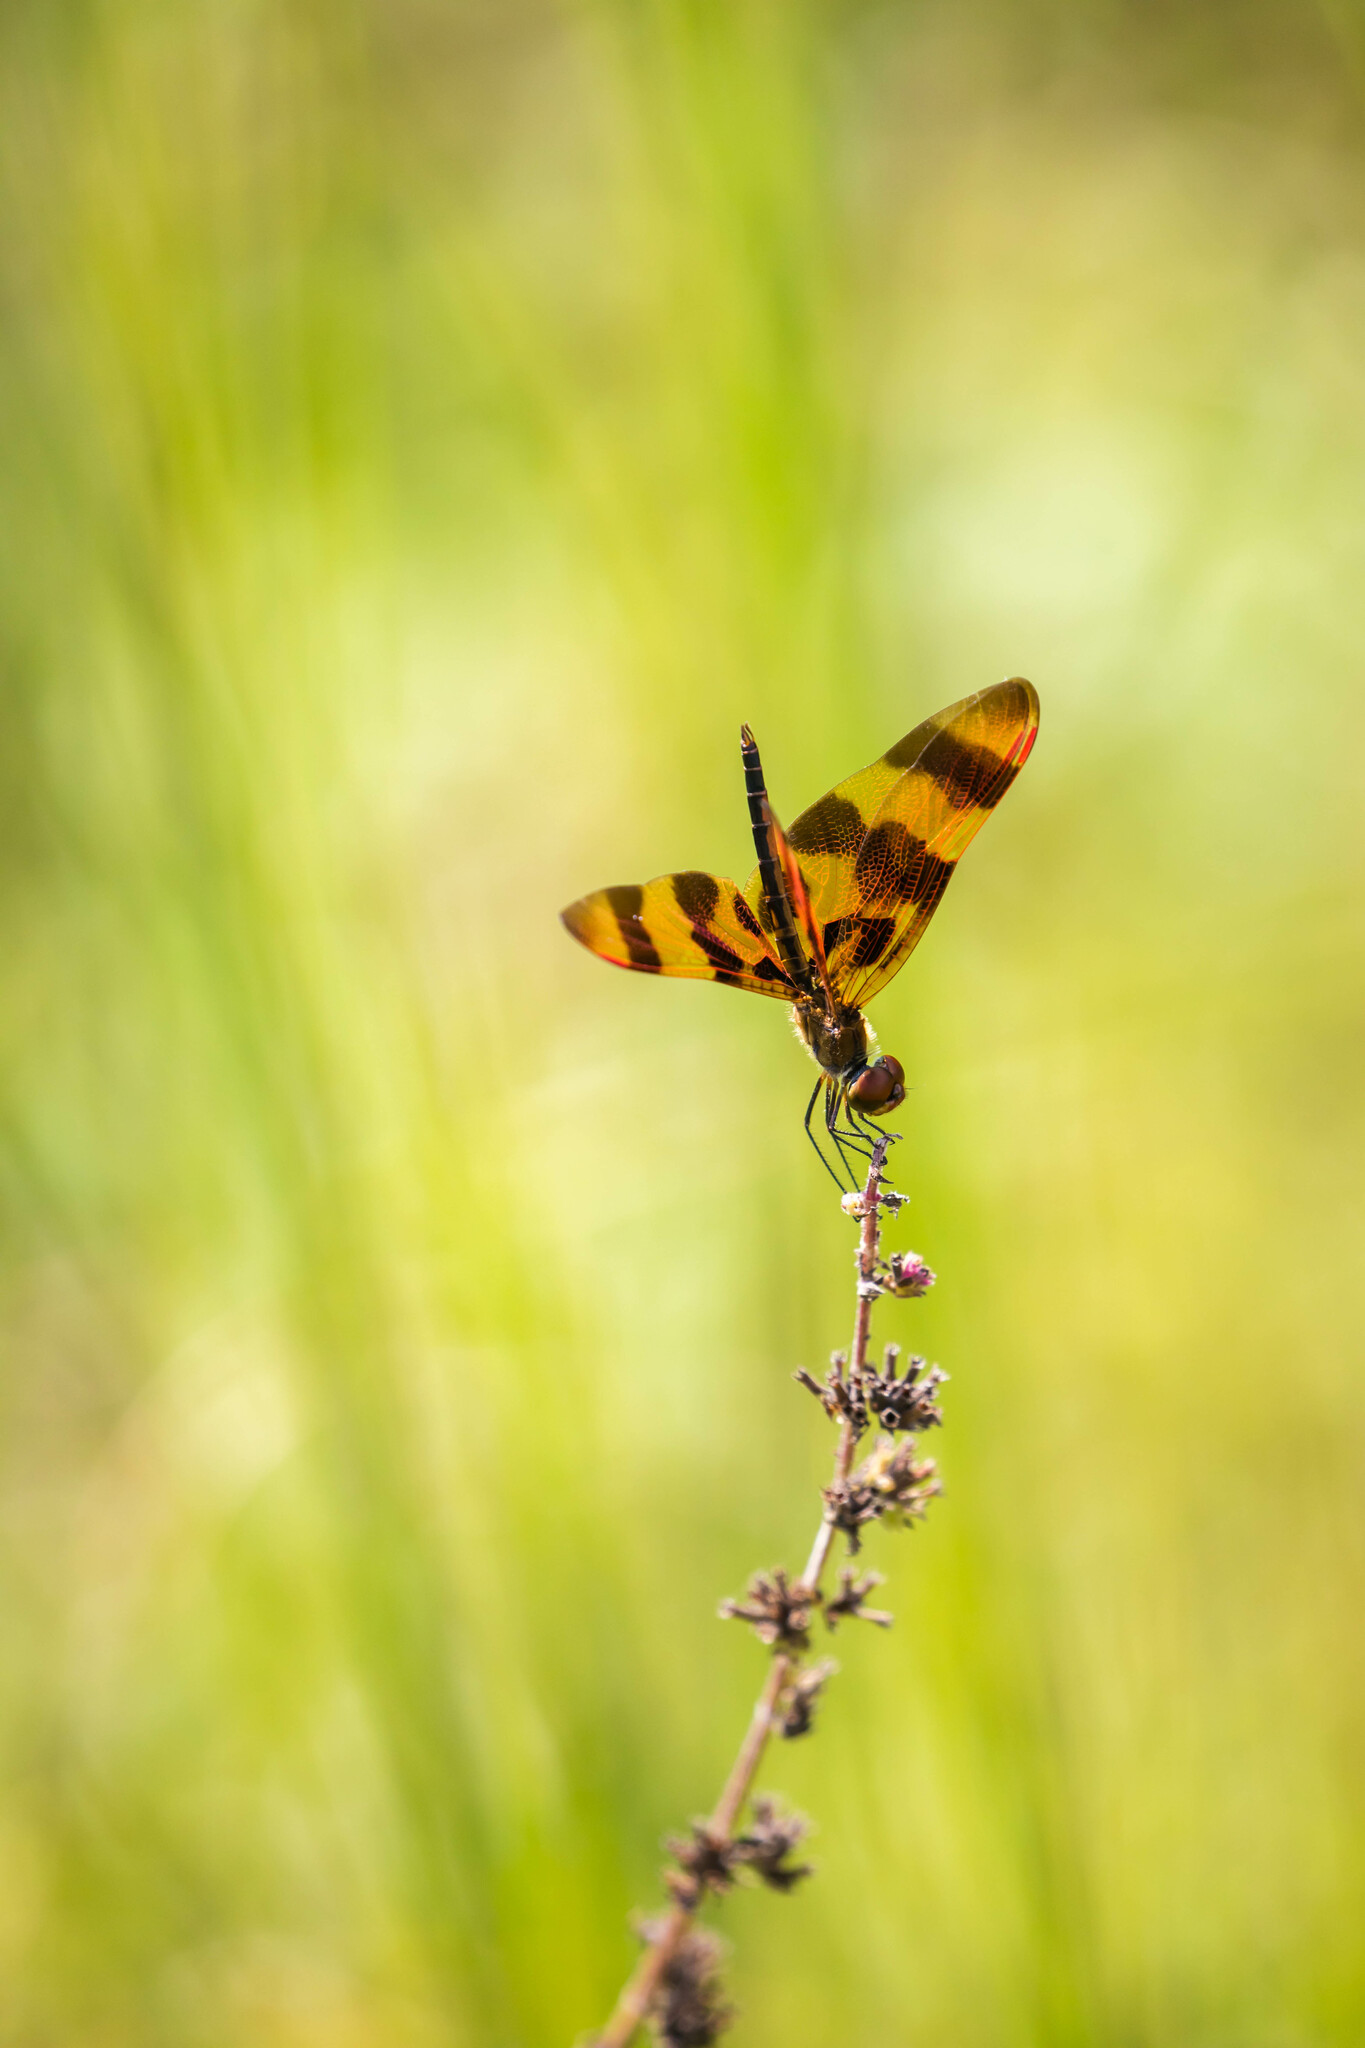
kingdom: Animalia
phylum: Arthropoda
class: Insecta
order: Odonata
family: Libellulidae
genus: Celithemis
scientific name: Celithemis eponina
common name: Halloween pennant
